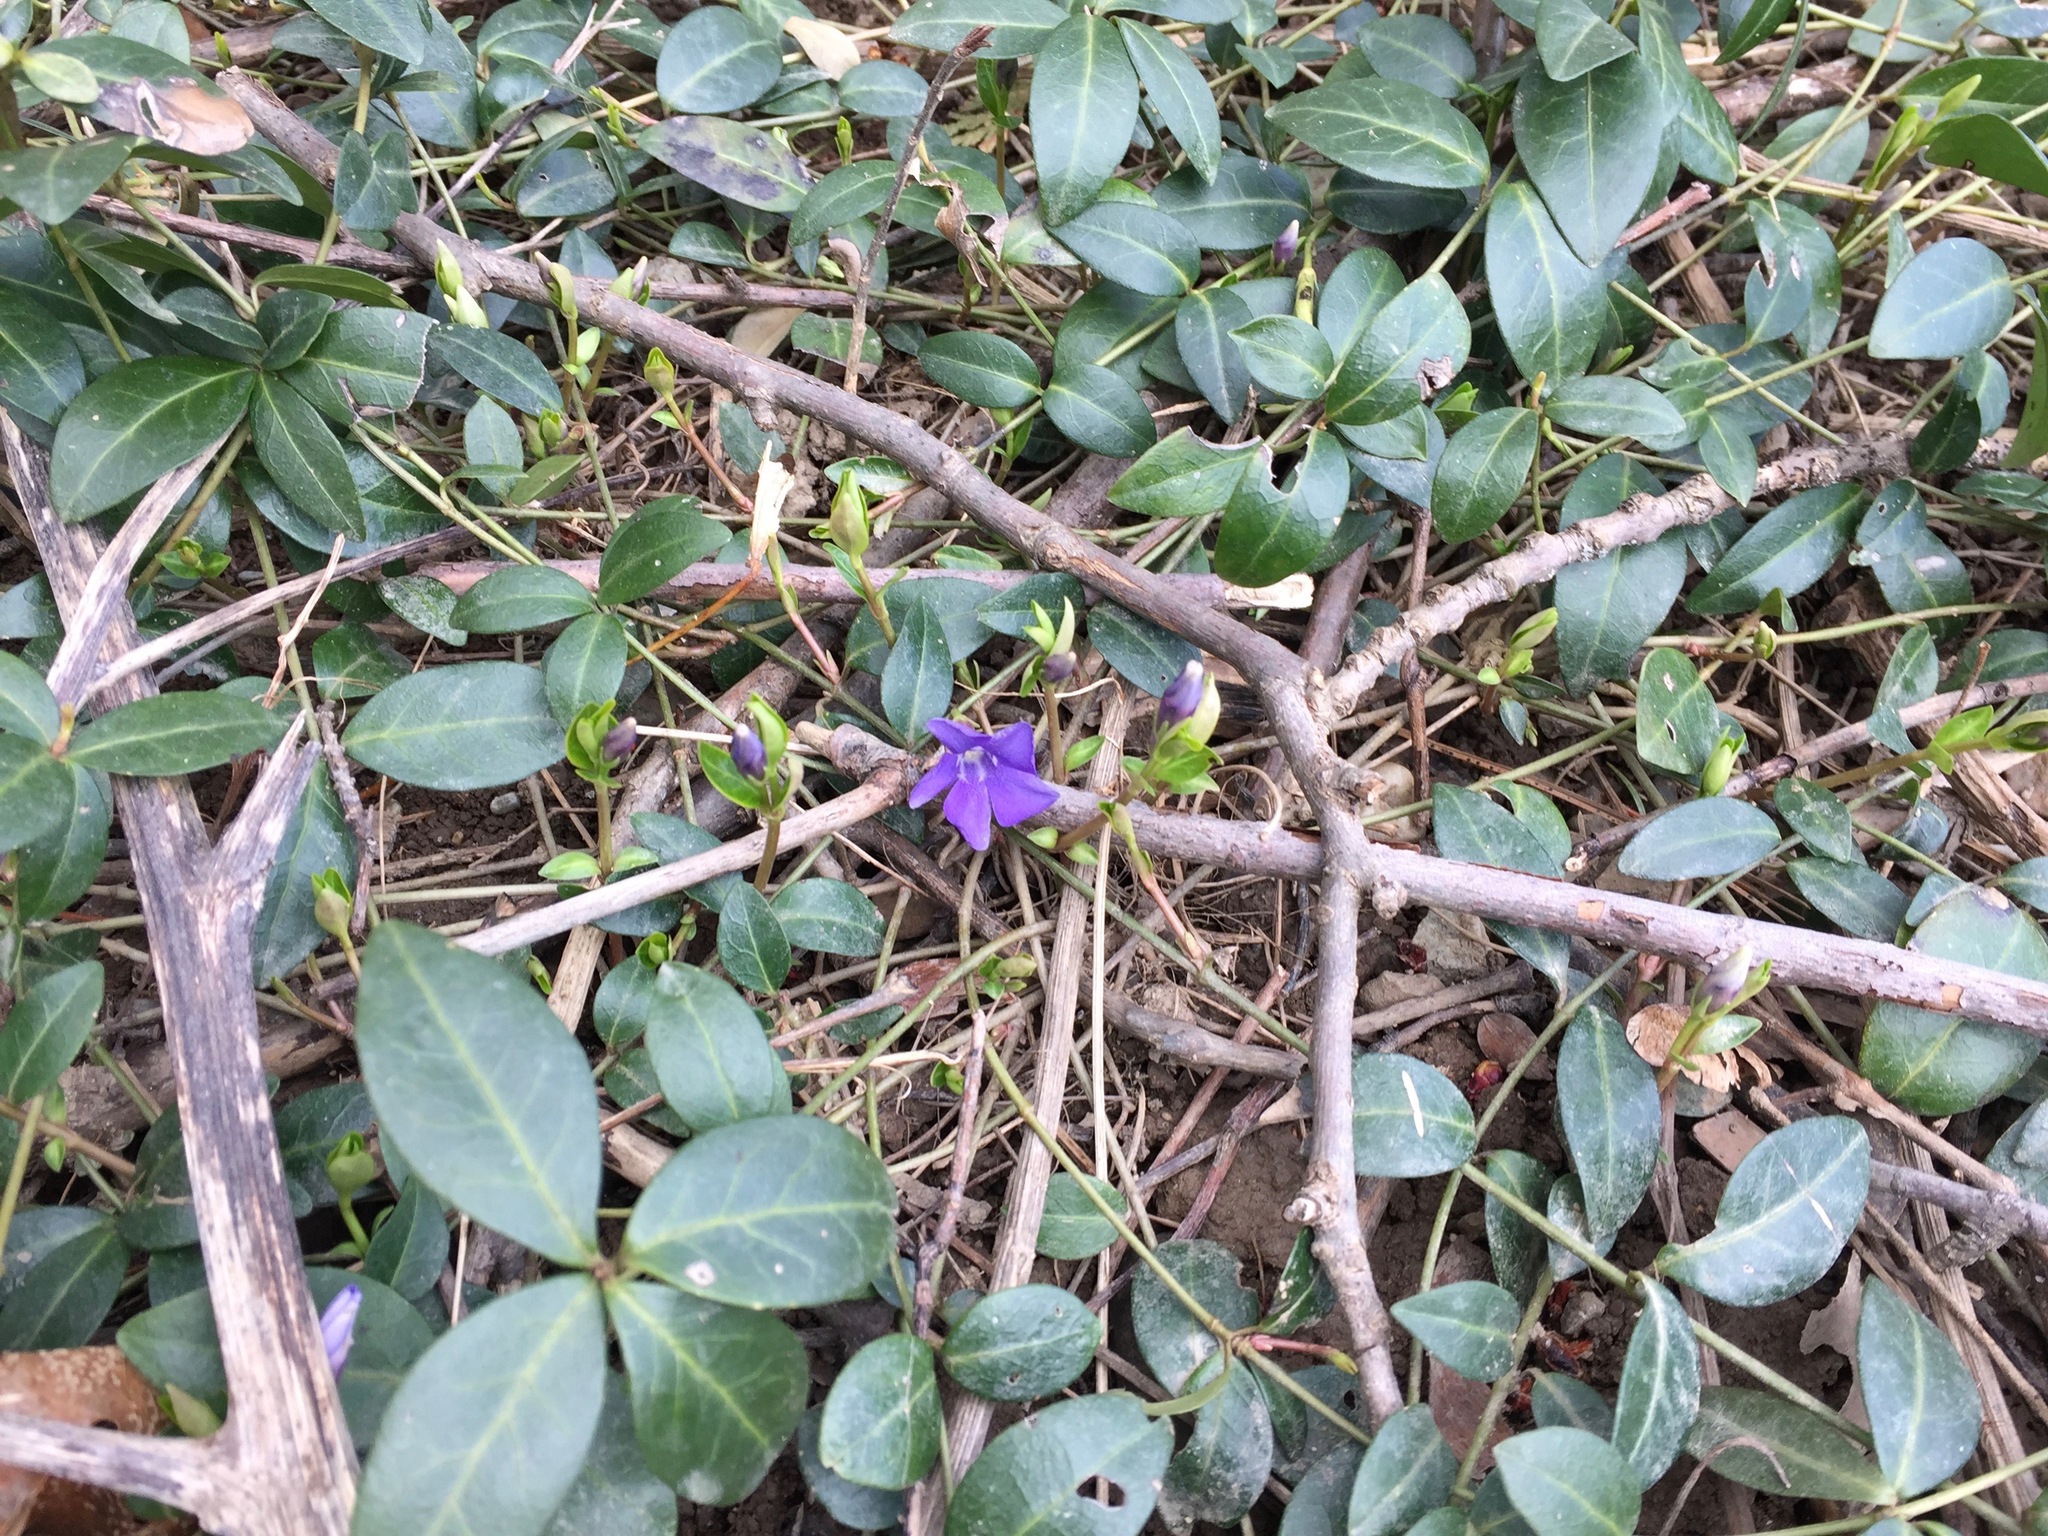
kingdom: Plantae
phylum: Tracheophyta
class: Magnoliopsida
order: Gentianales
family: Apocynaceae
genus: Vinca
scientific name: Vinca minor
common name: Lesser periwinkle
